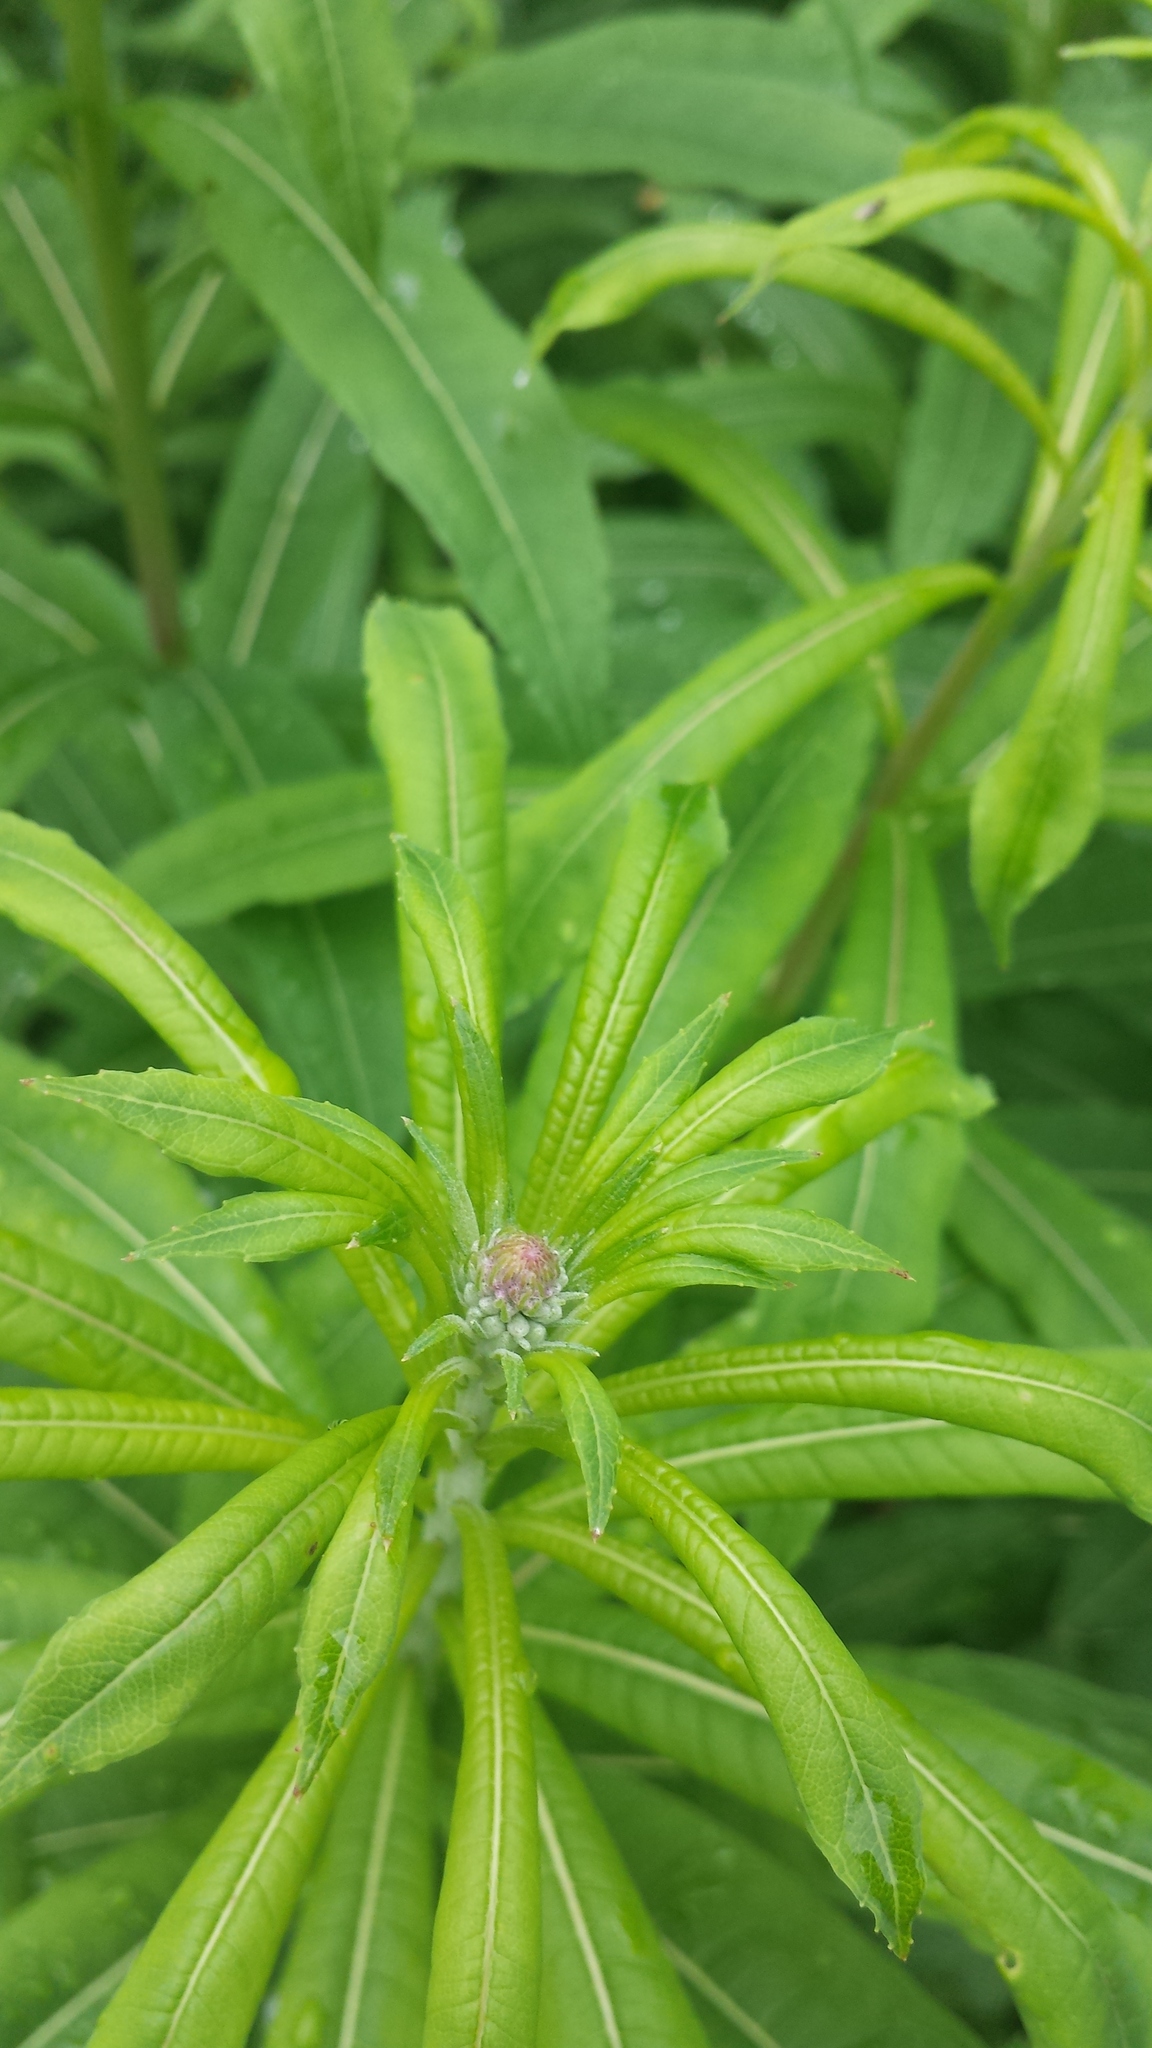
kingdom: Plantae
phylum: Tracheophyta
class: Magnoliopsida
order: Myrtales
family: Onagraceae
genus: Chamaenerion
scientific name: Chamaenerion angustifolium
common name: Fireweed
